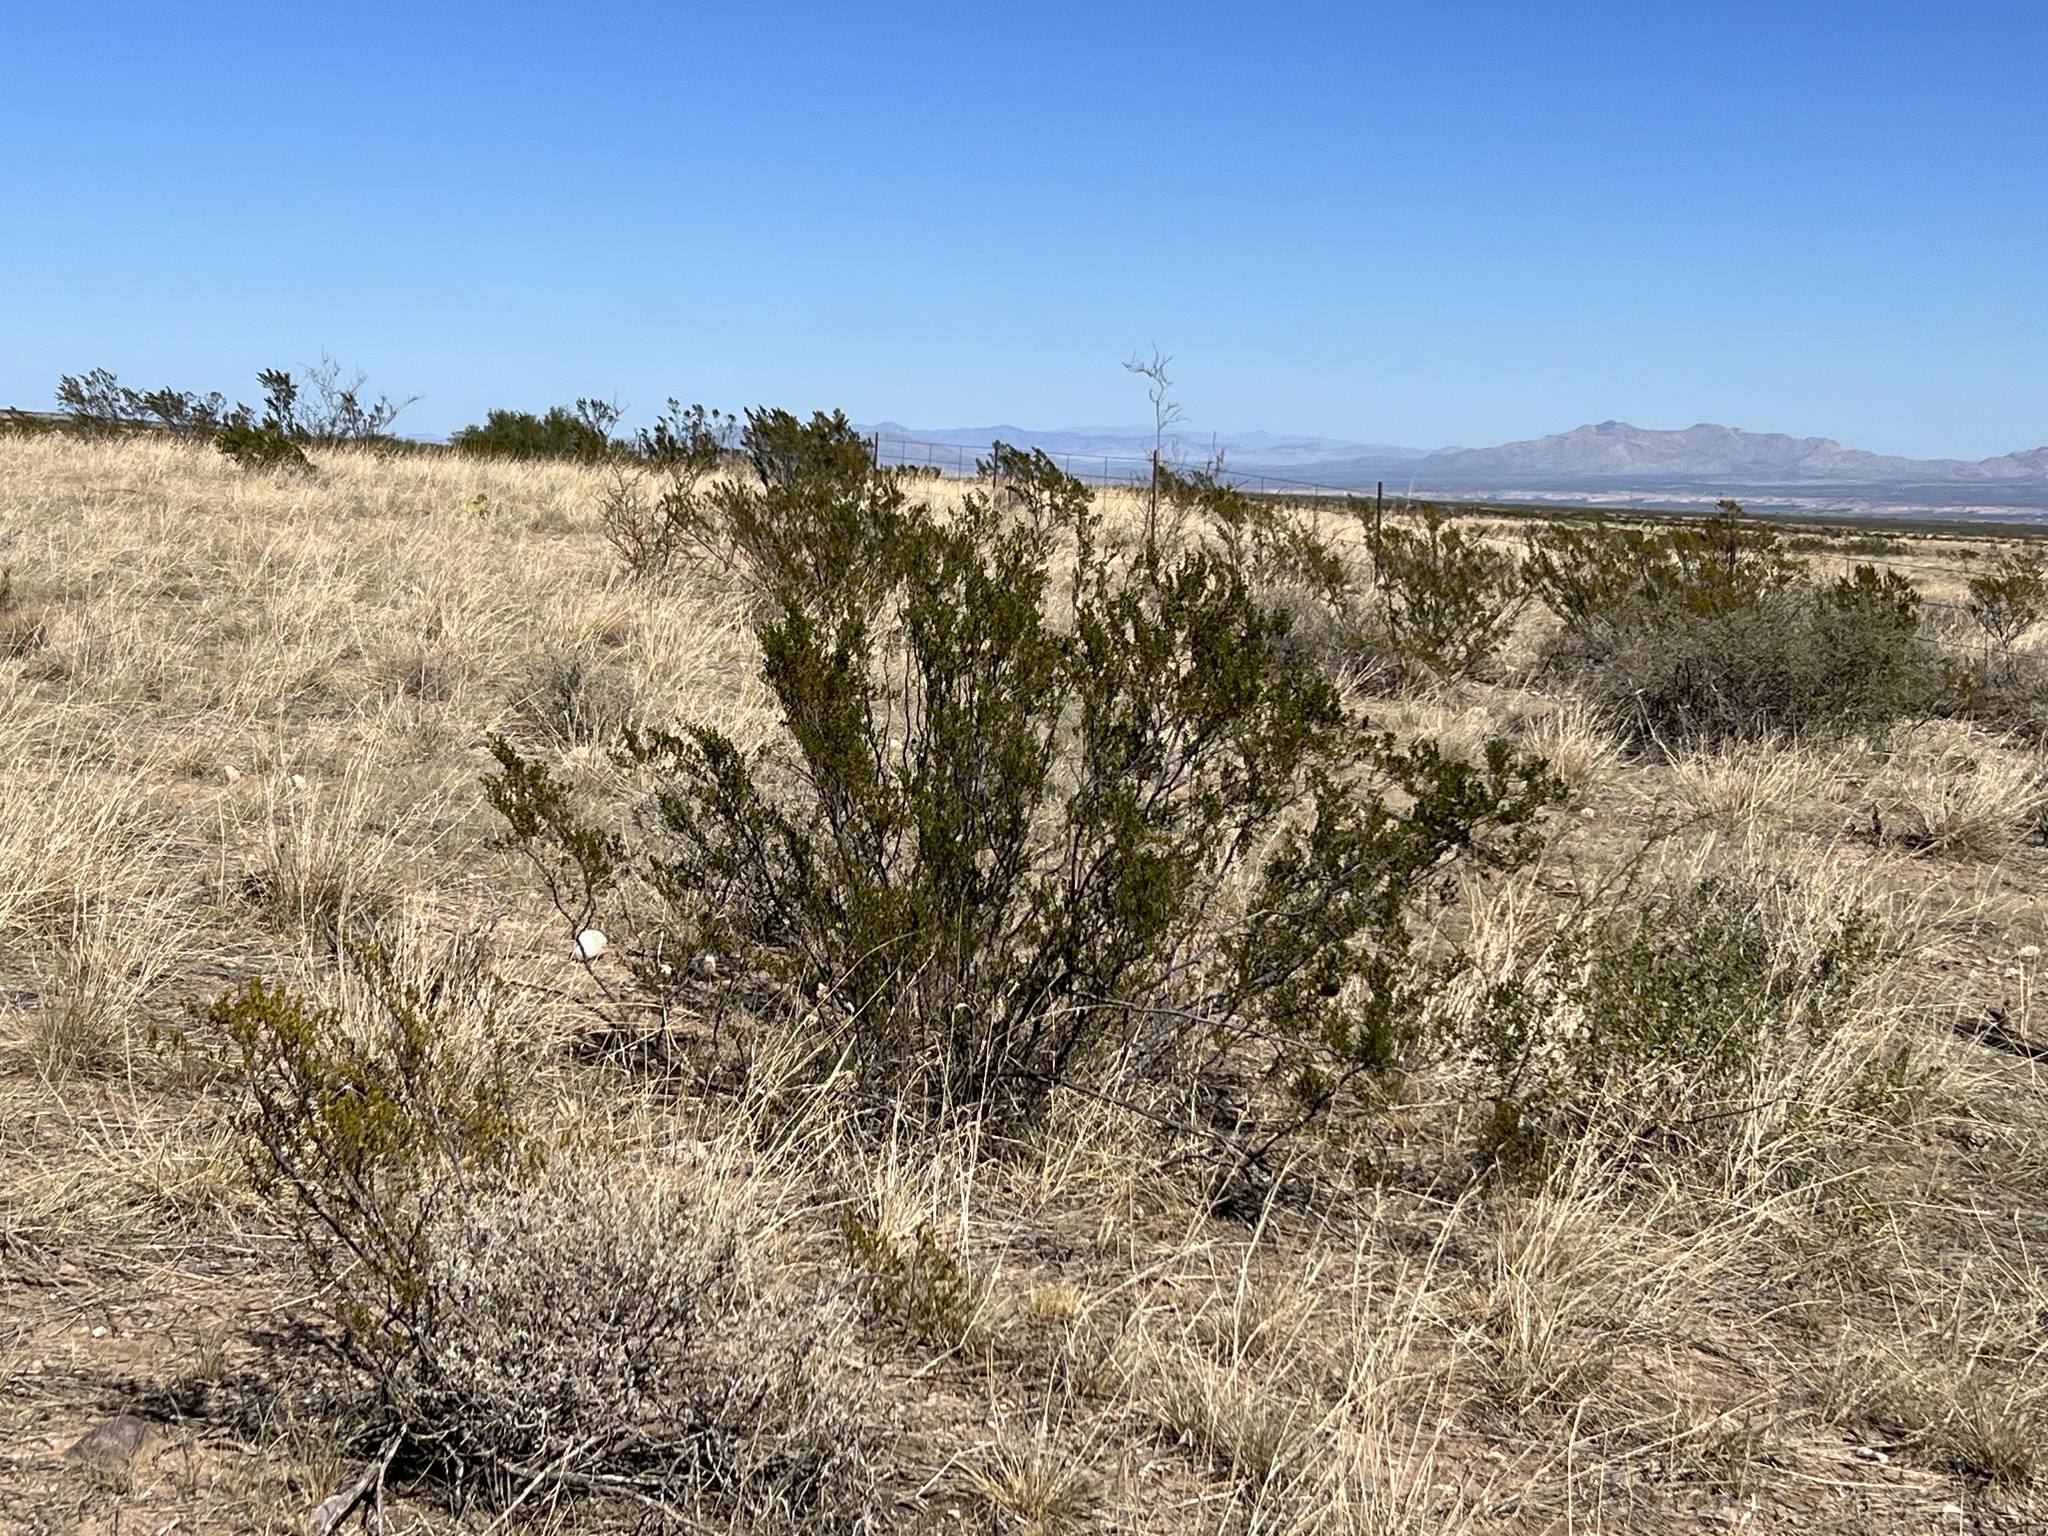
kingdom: Plantae
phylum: Tracheophyta
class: Magnoliopsida
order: Zygophyllales
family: Zygophyllaceae
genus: Larrea
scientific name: Larrea tridentata
